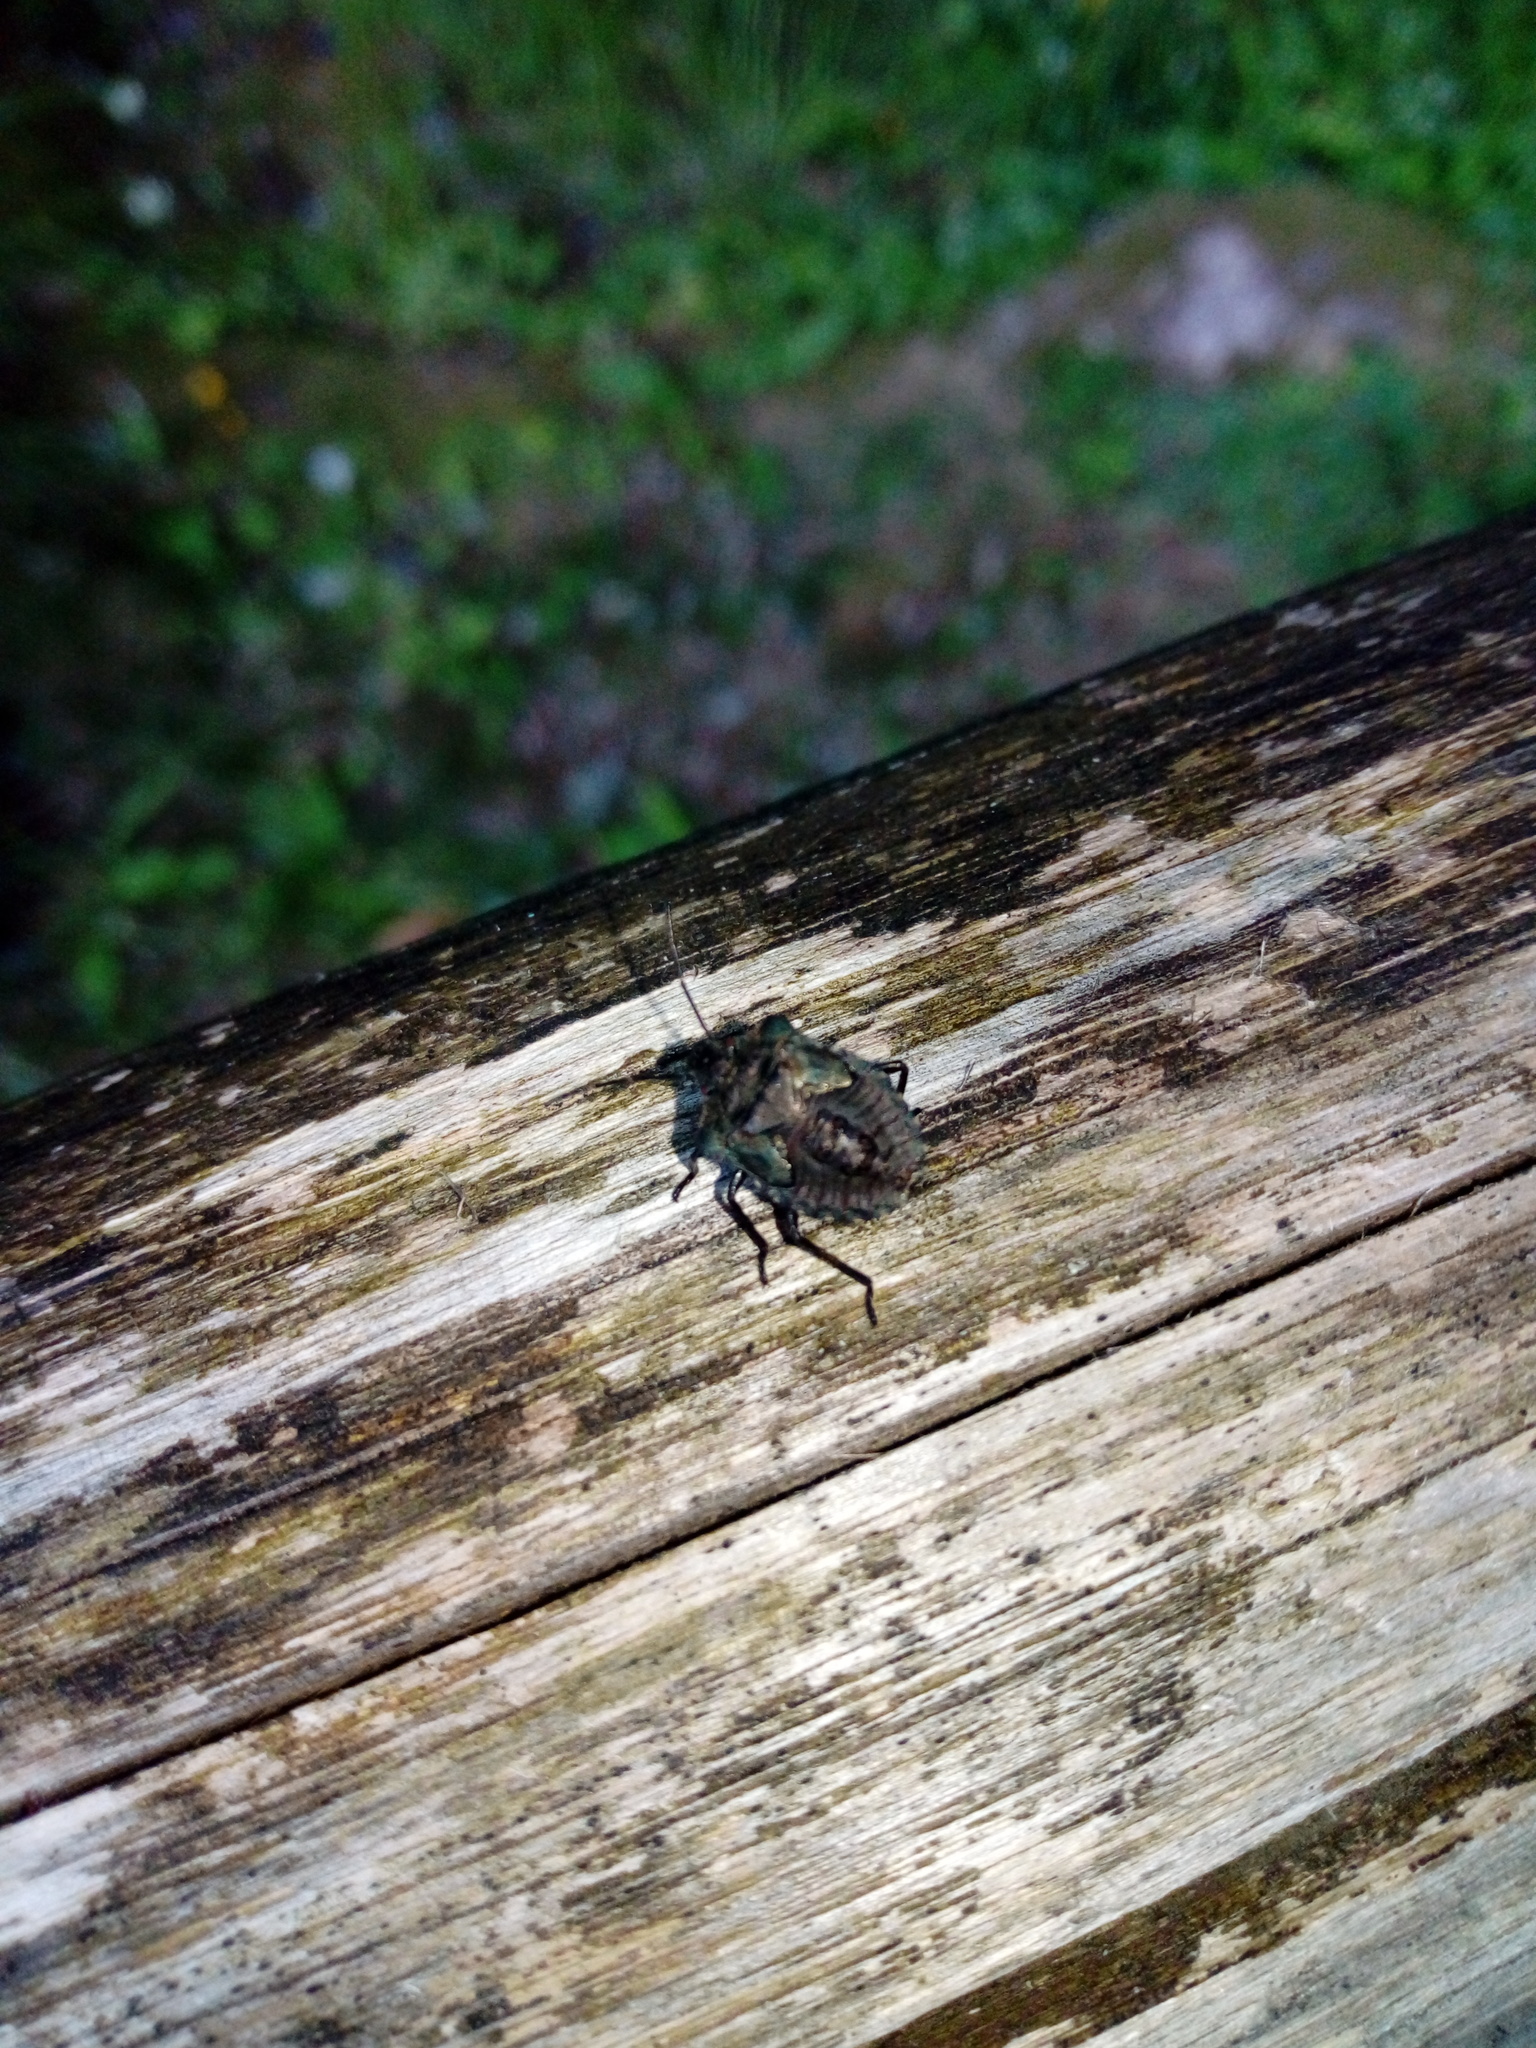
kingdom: Animalia
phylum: Arthropoda
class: Insecta
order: Hemiptera
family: Pentatomidae
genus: Pentatoma
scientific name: Pentatoma rufipes
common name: Forest bug
